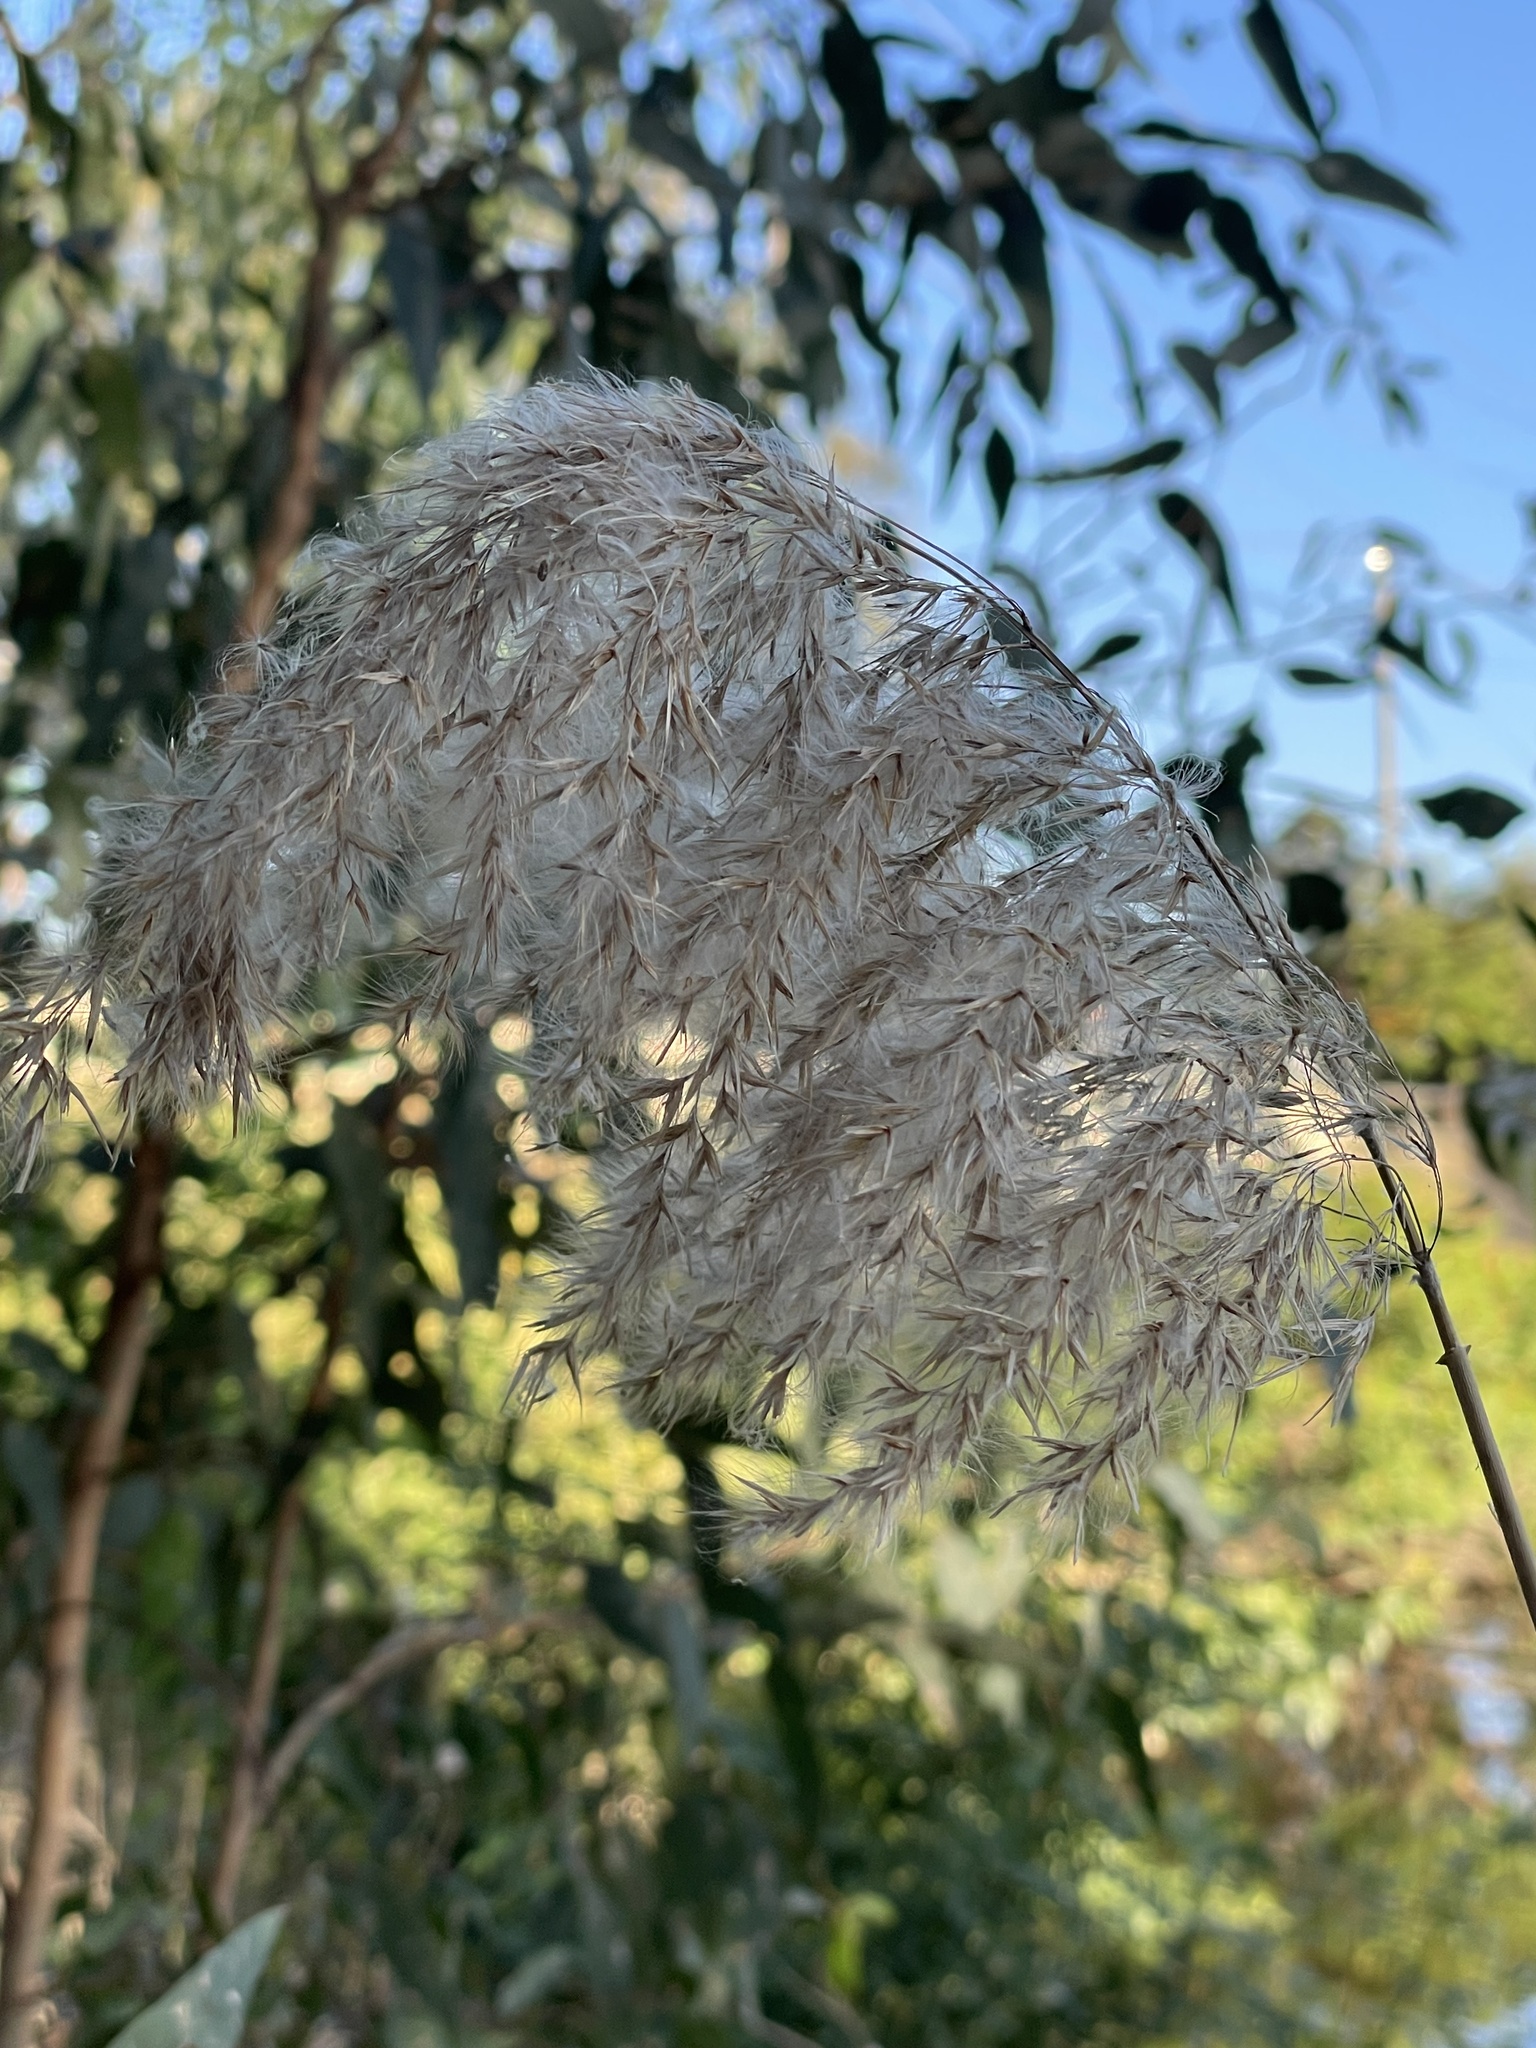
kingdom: Plantae
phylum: Tracheophyta
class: Liliopsida
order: Poales
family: Poaceae
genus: Phragmites
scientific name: Phragmites australis
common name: Common reed
